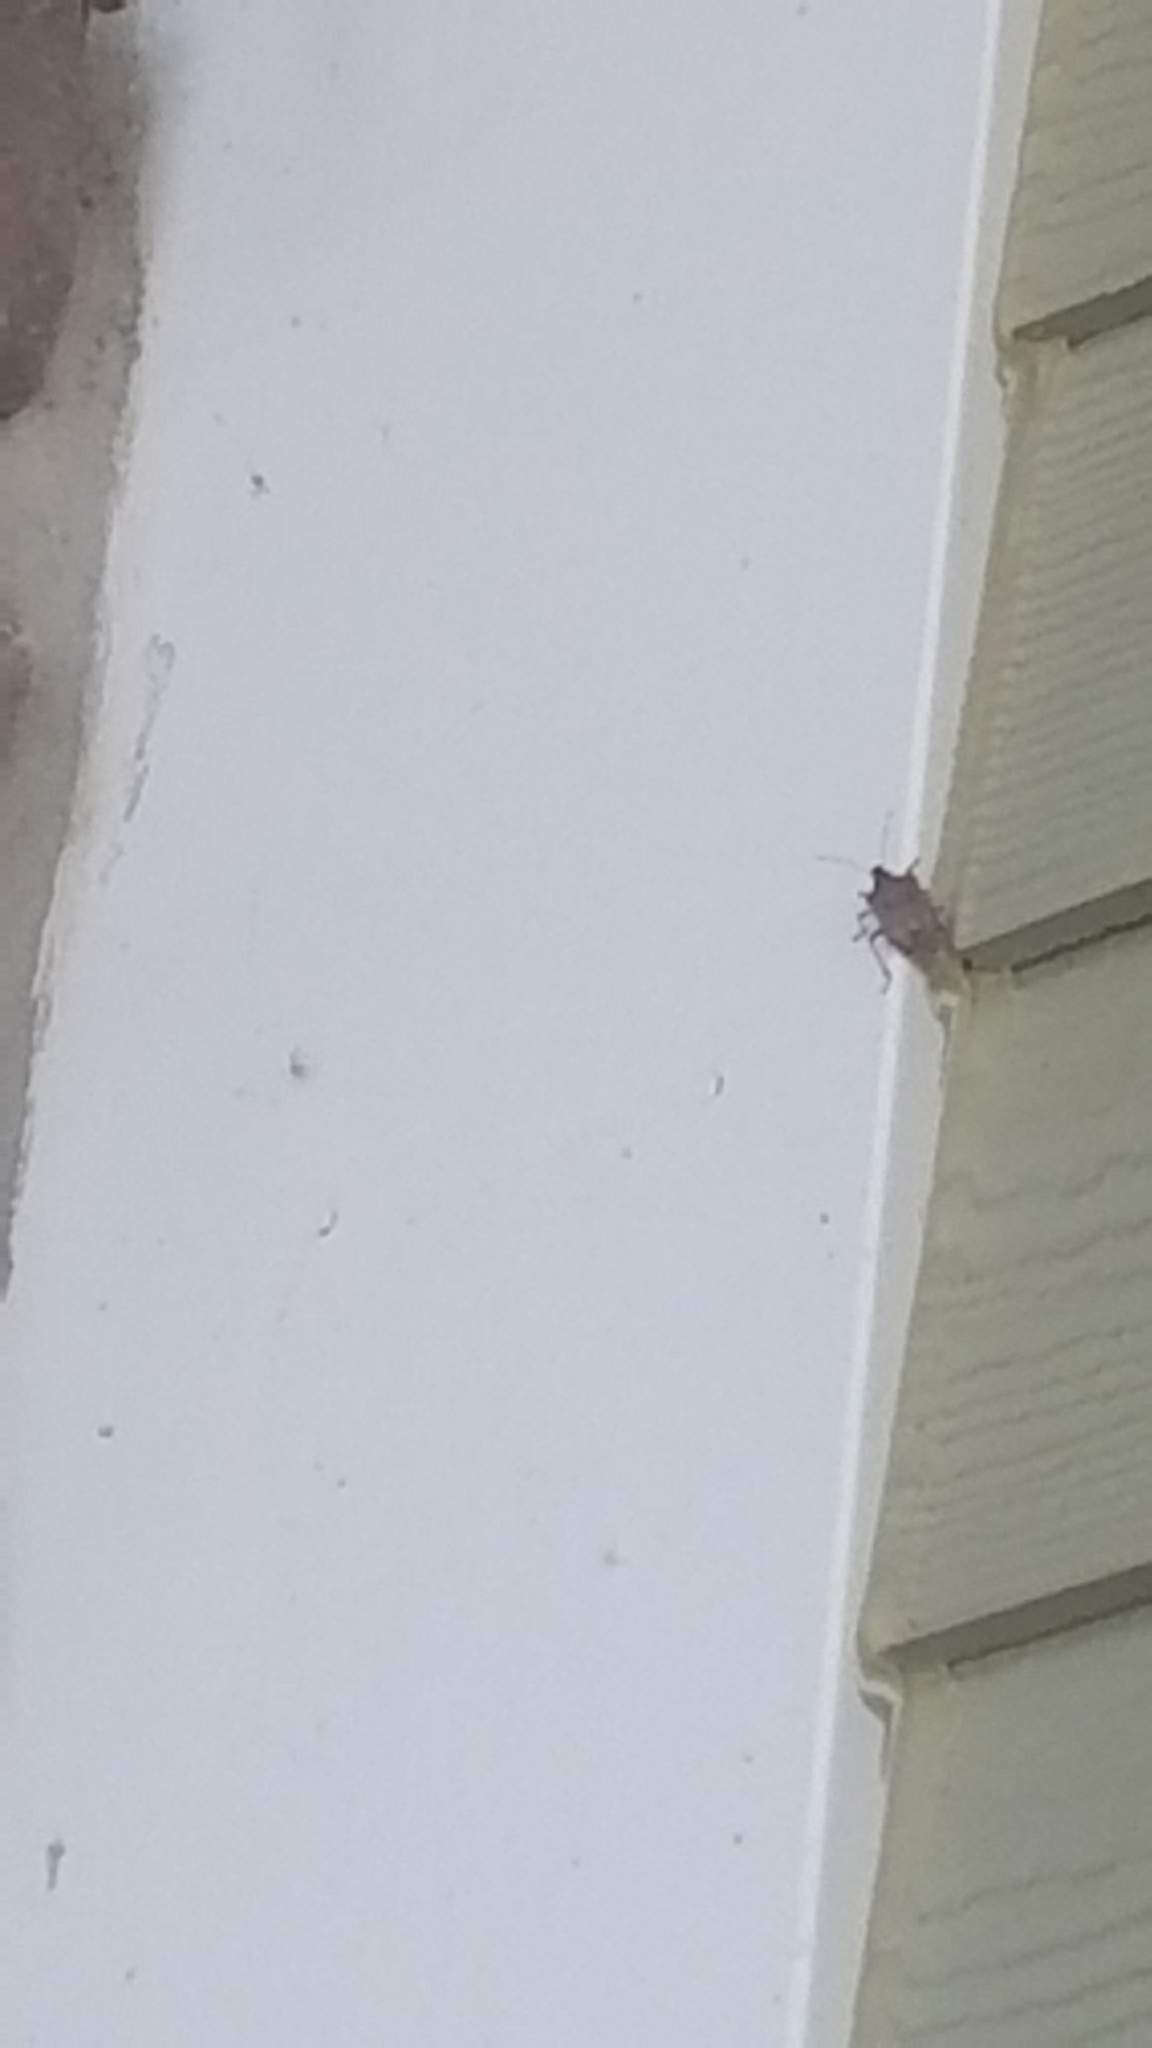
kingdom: Animalia
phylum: Arthropoda
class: Insecta
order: Hemiptera
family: Pentatomidae
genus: Halyomorpha
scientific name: Halyomorpha halys
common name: Brown marmorated stink bug
